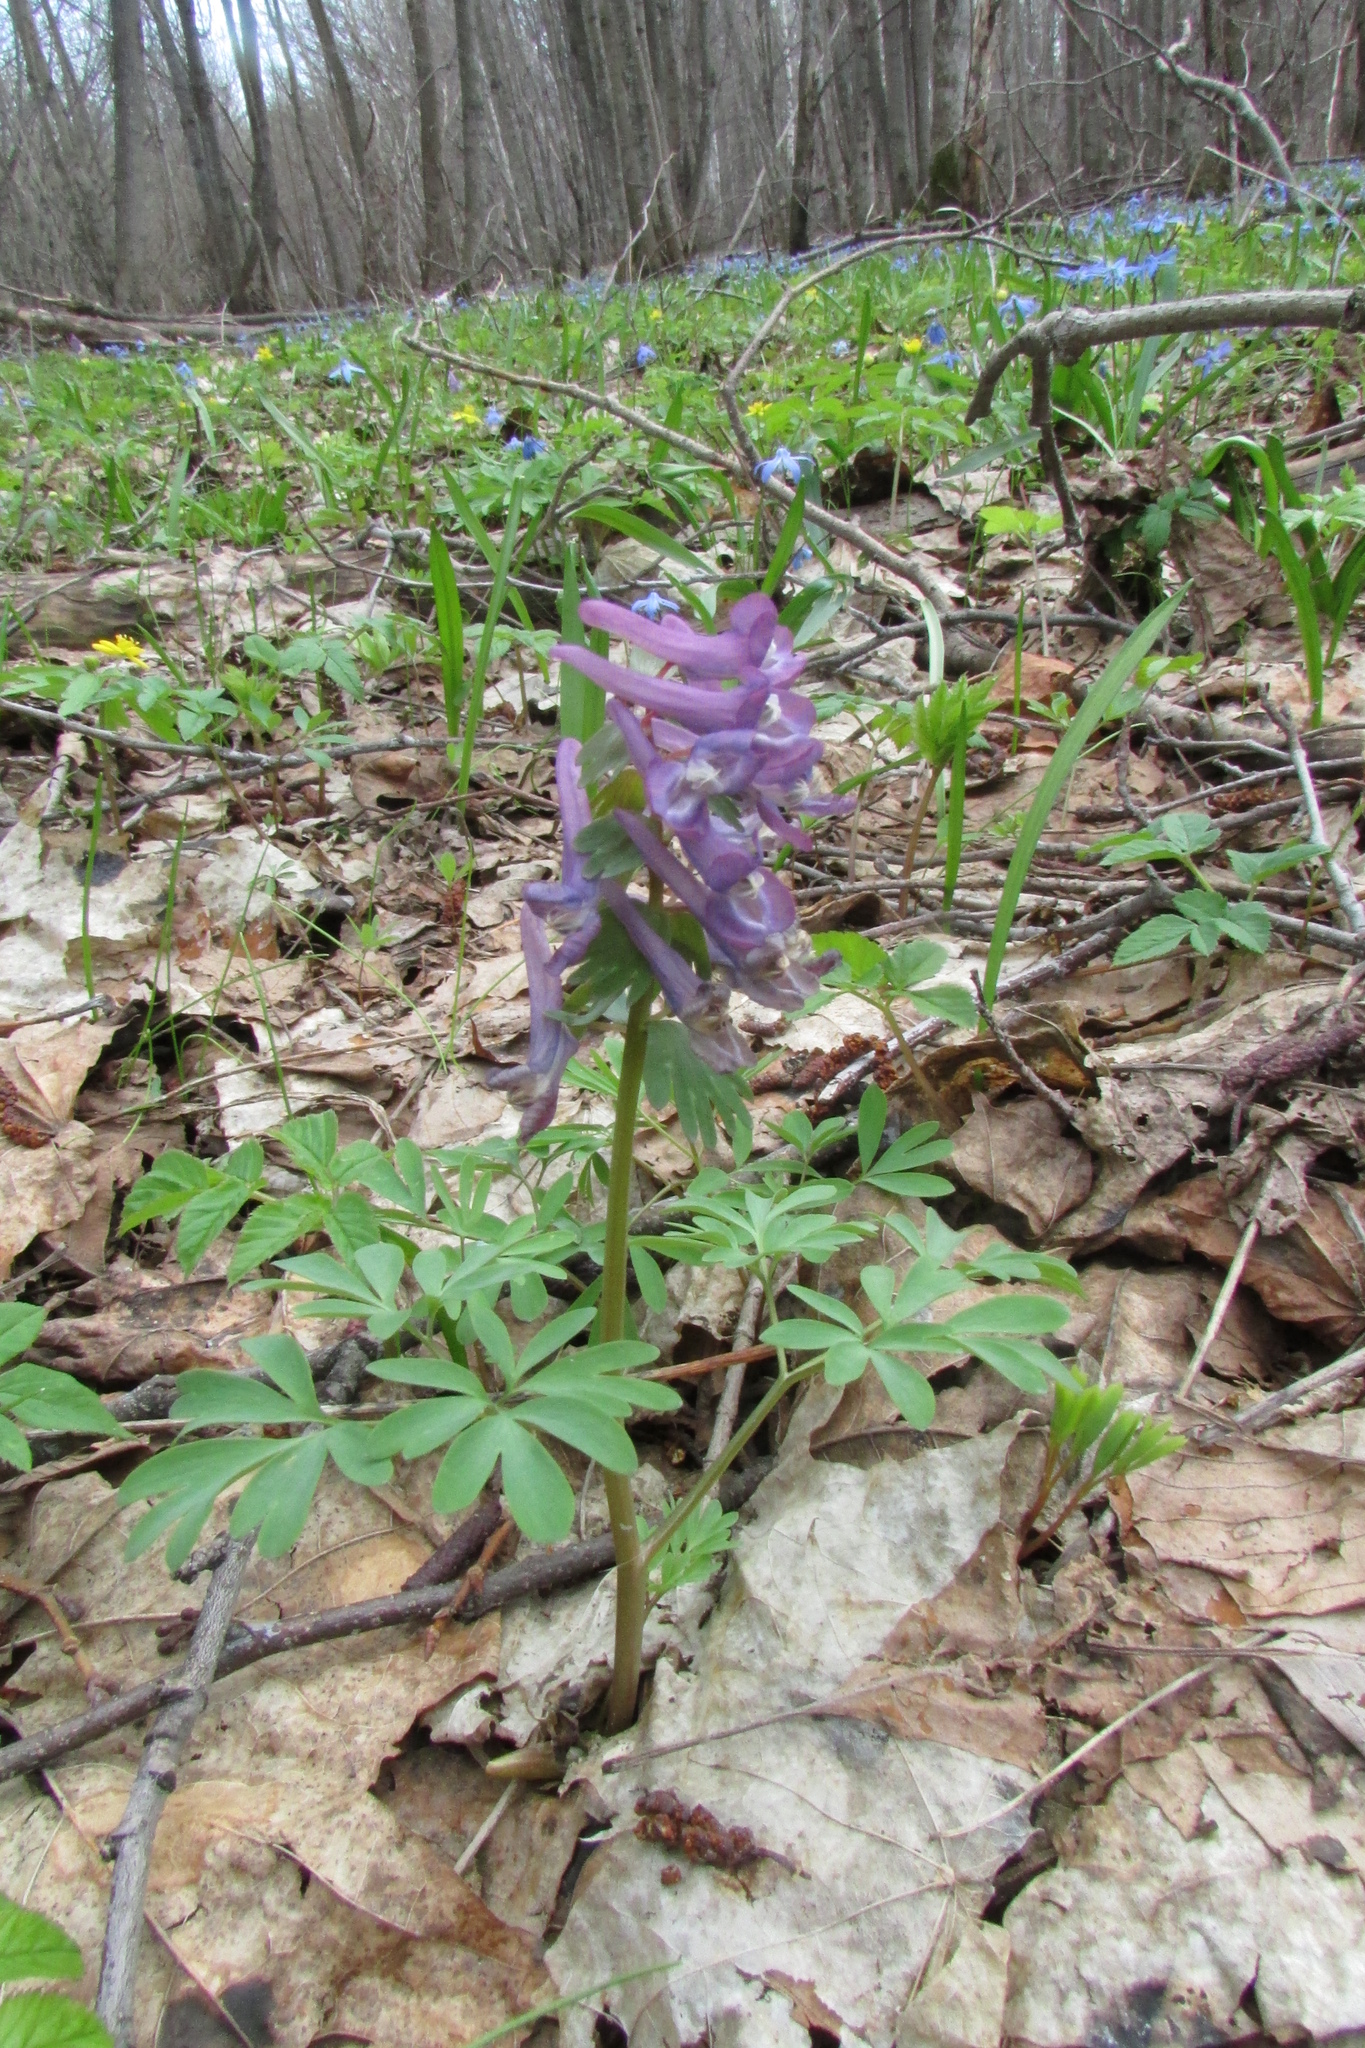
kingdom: Plantae
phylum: Tracheophyta
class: Magnoliopsida
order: Ranunculales
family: Papaveraceae
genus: Corydalis
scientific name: Corydalis solida
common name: Bird-in-a-bush
